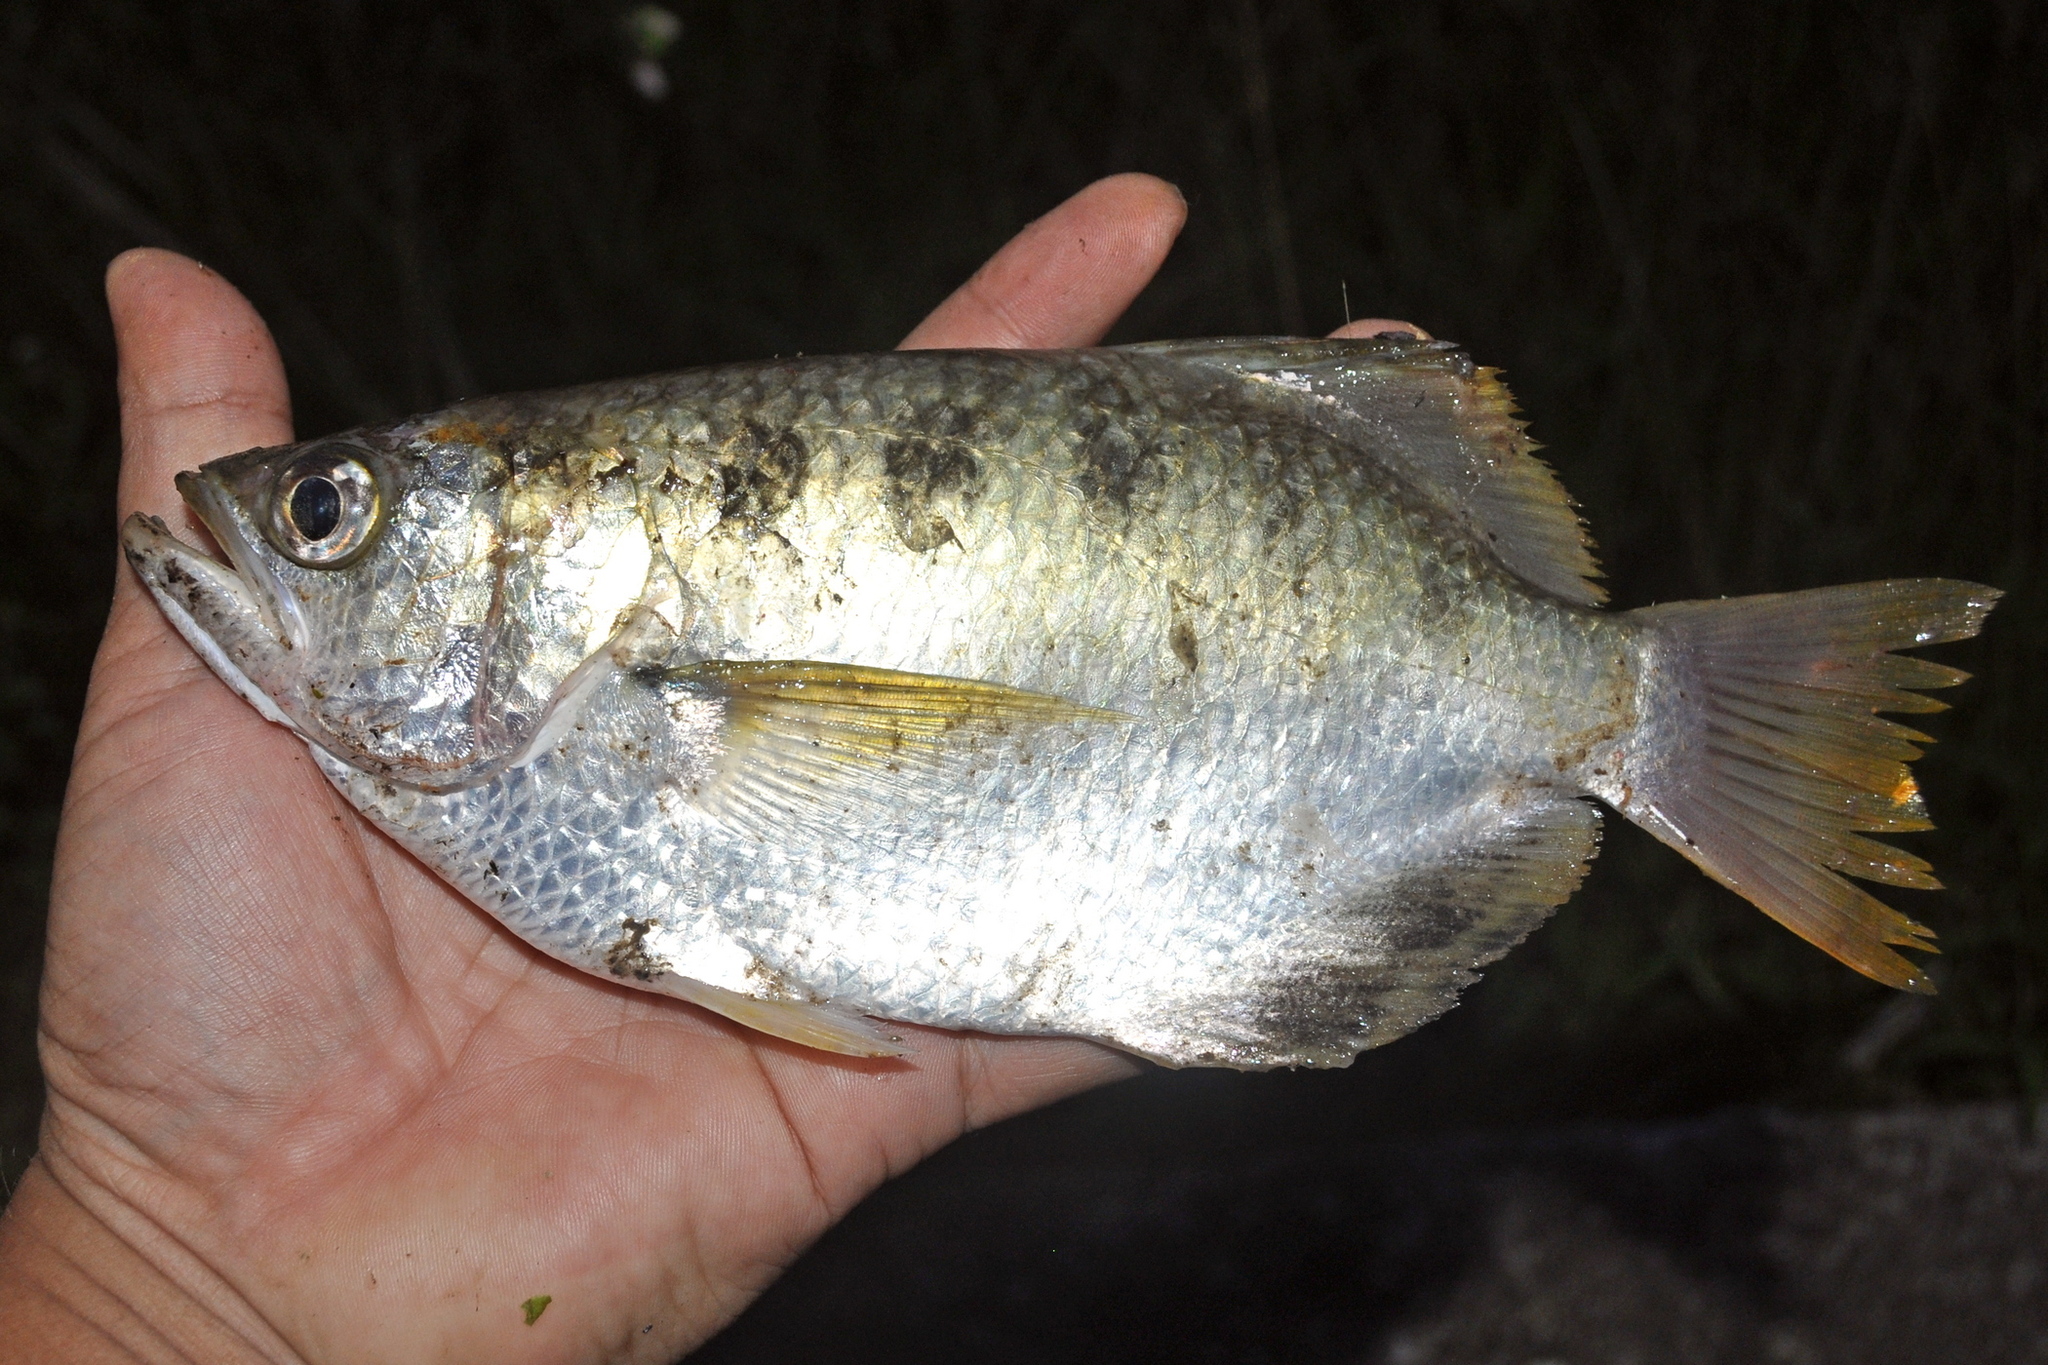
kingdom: Animalia
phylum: Chordata
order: Perciformes
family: Toxotidae
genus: Toxotes
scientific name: Toxotes chatareus
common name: Spotted archerfish
